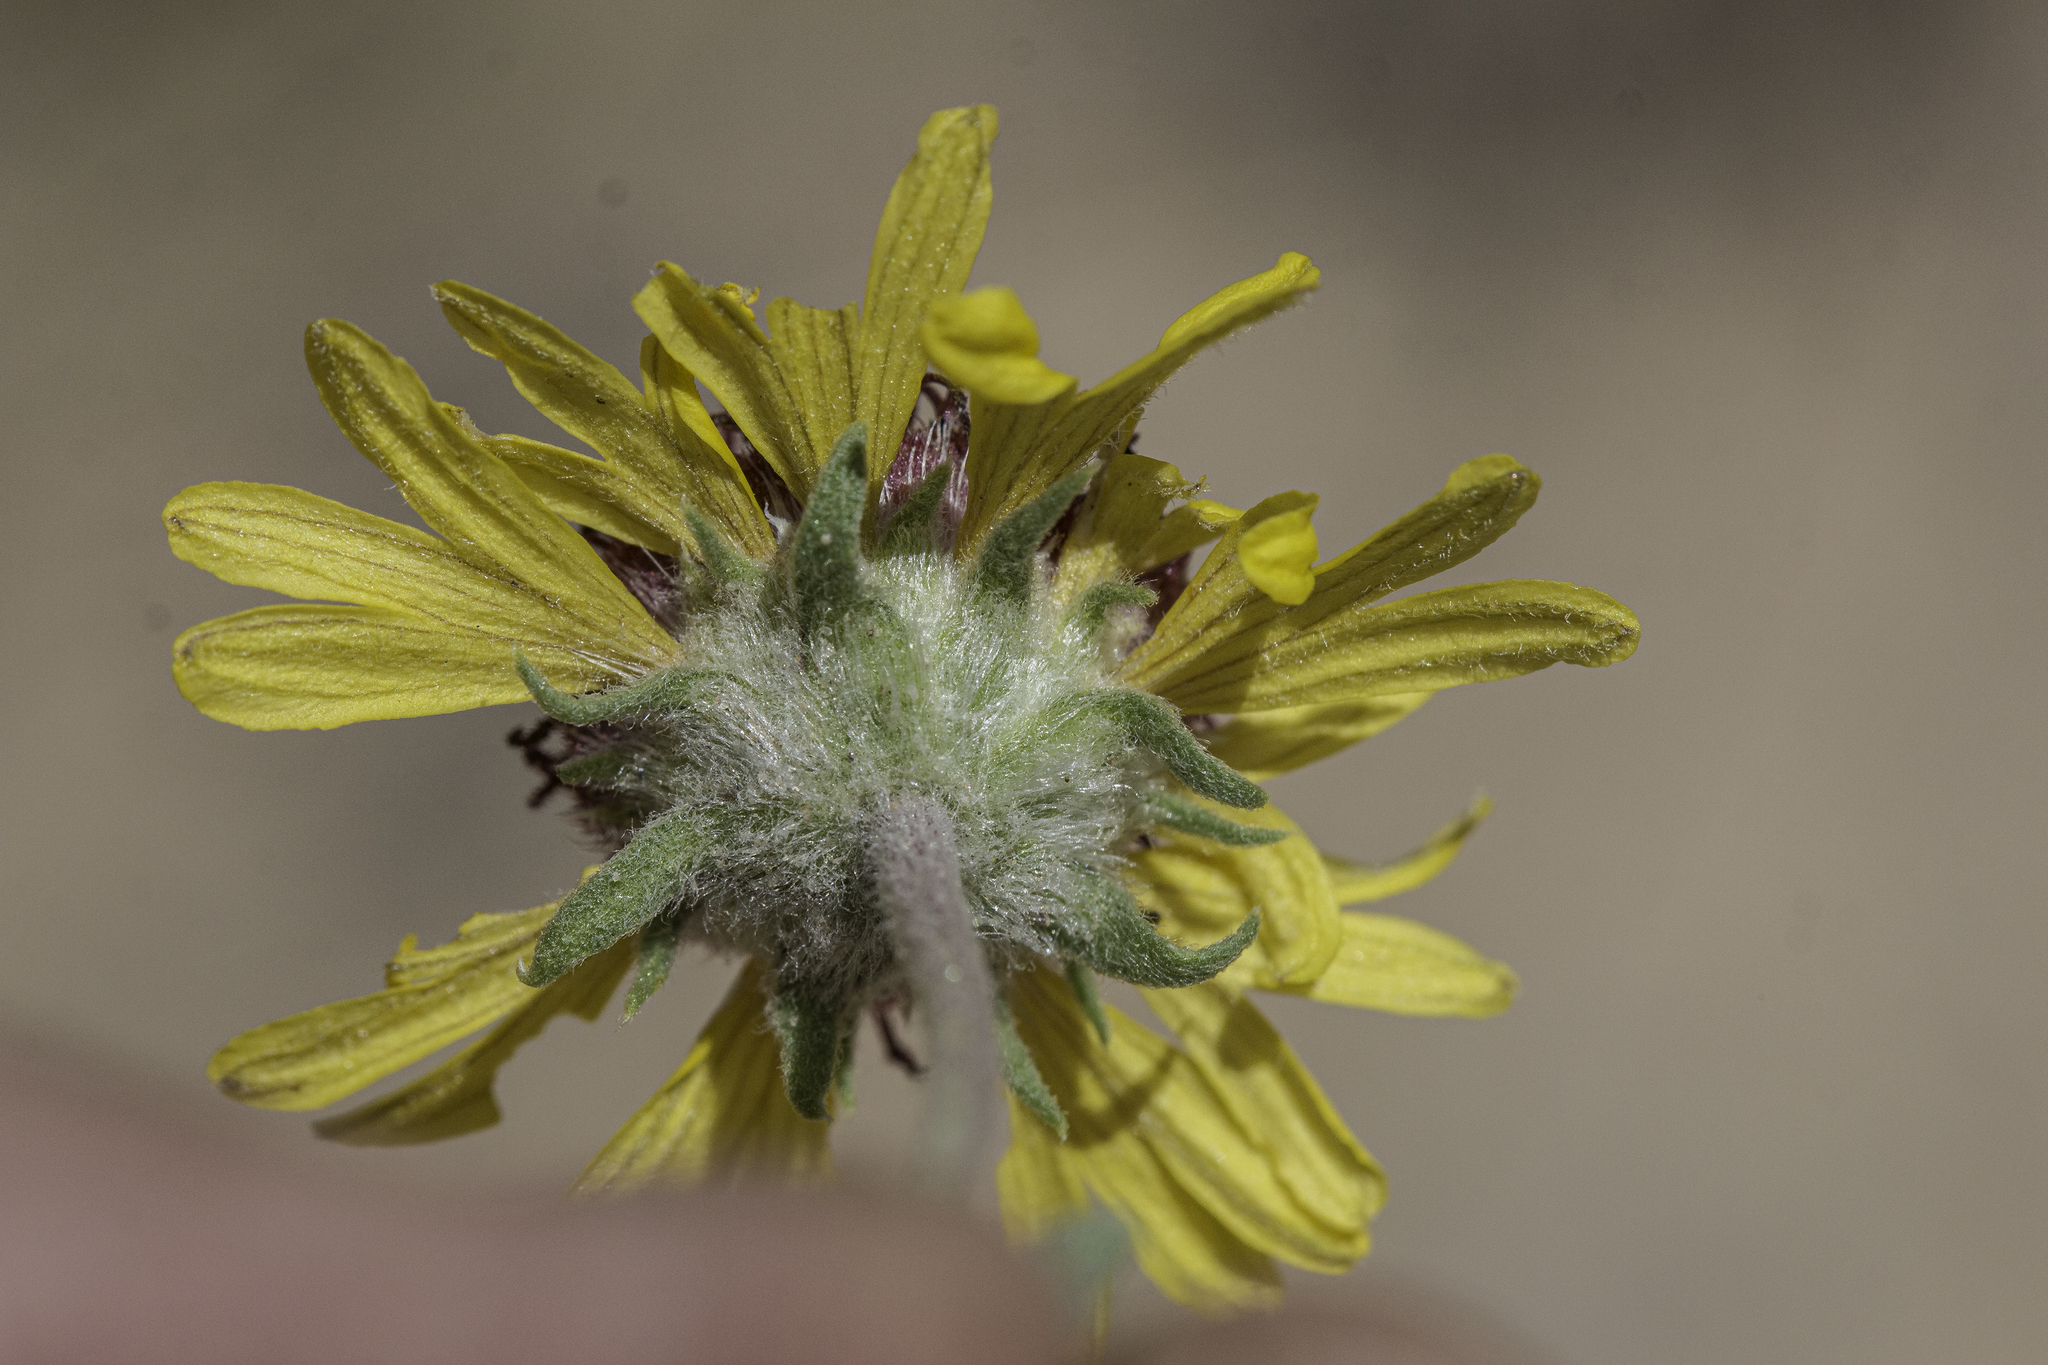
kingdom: Plantae
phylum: Tracheophyta
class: Magnoliopsida
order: Asterales
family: Asteraceae
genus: Gaillardia
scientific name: Gaillardia pinnatifida
